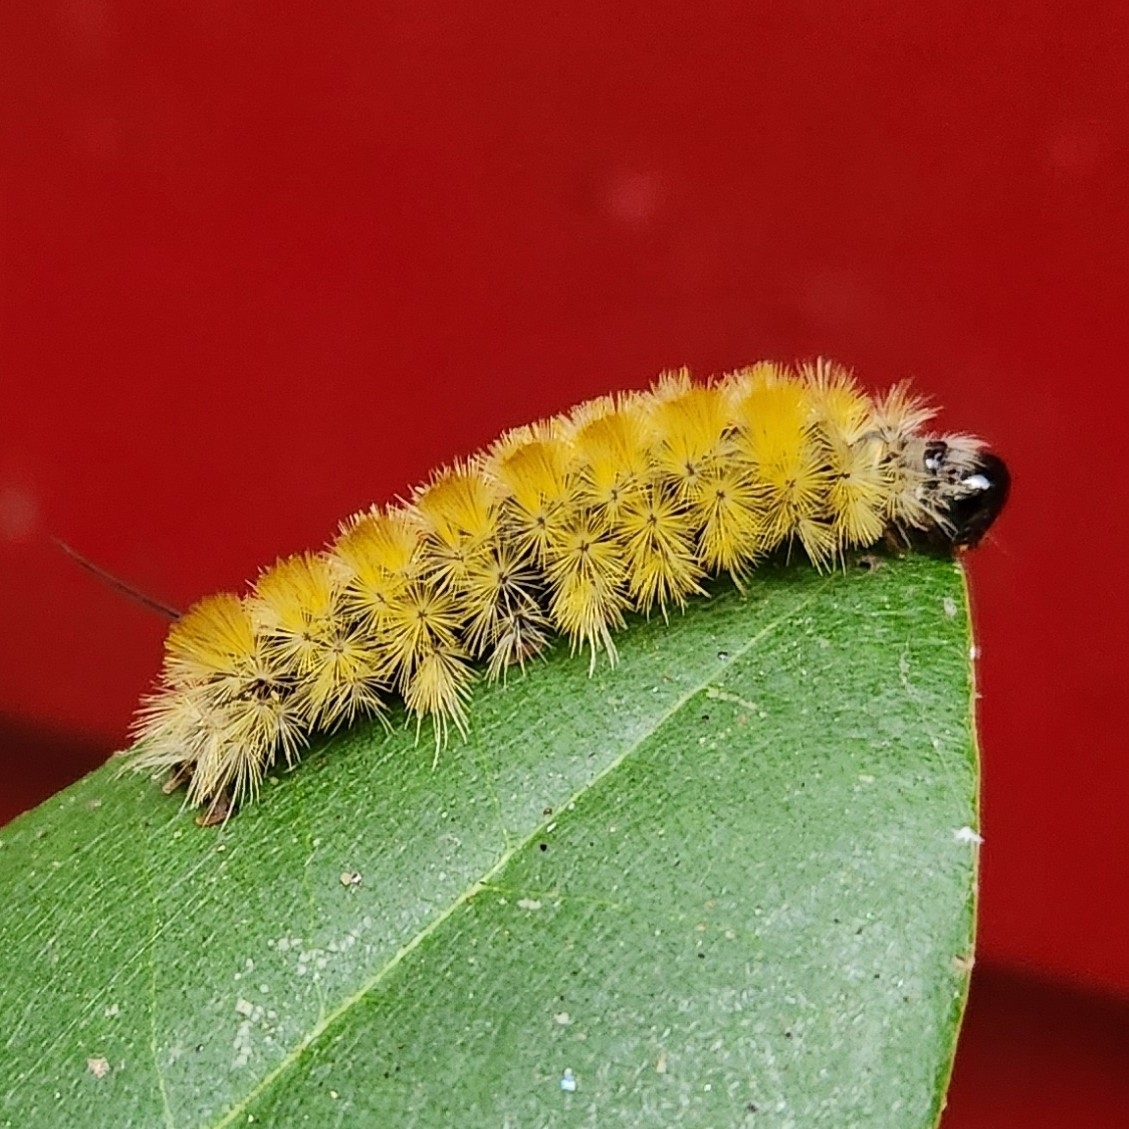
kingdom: Animalia
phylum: Arthropoda
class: Insecta
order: Lepidoptera
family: Erebidae
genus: Halysidota
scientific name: Halysidota tessellaris
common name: Banded tussock moth
